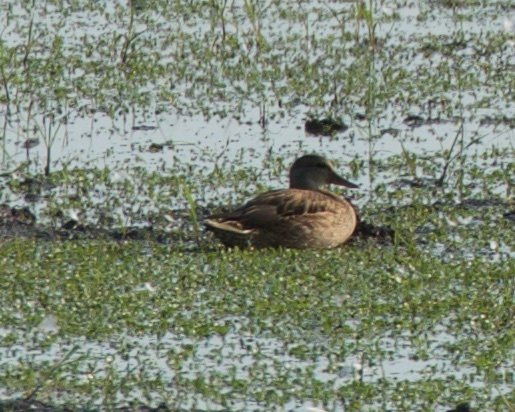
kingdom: Animalia
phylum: Chordata
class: Aves
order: Anseriformes
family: Anatidae
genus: Anas
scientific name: Anas platyrhynchos
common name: Mallard
